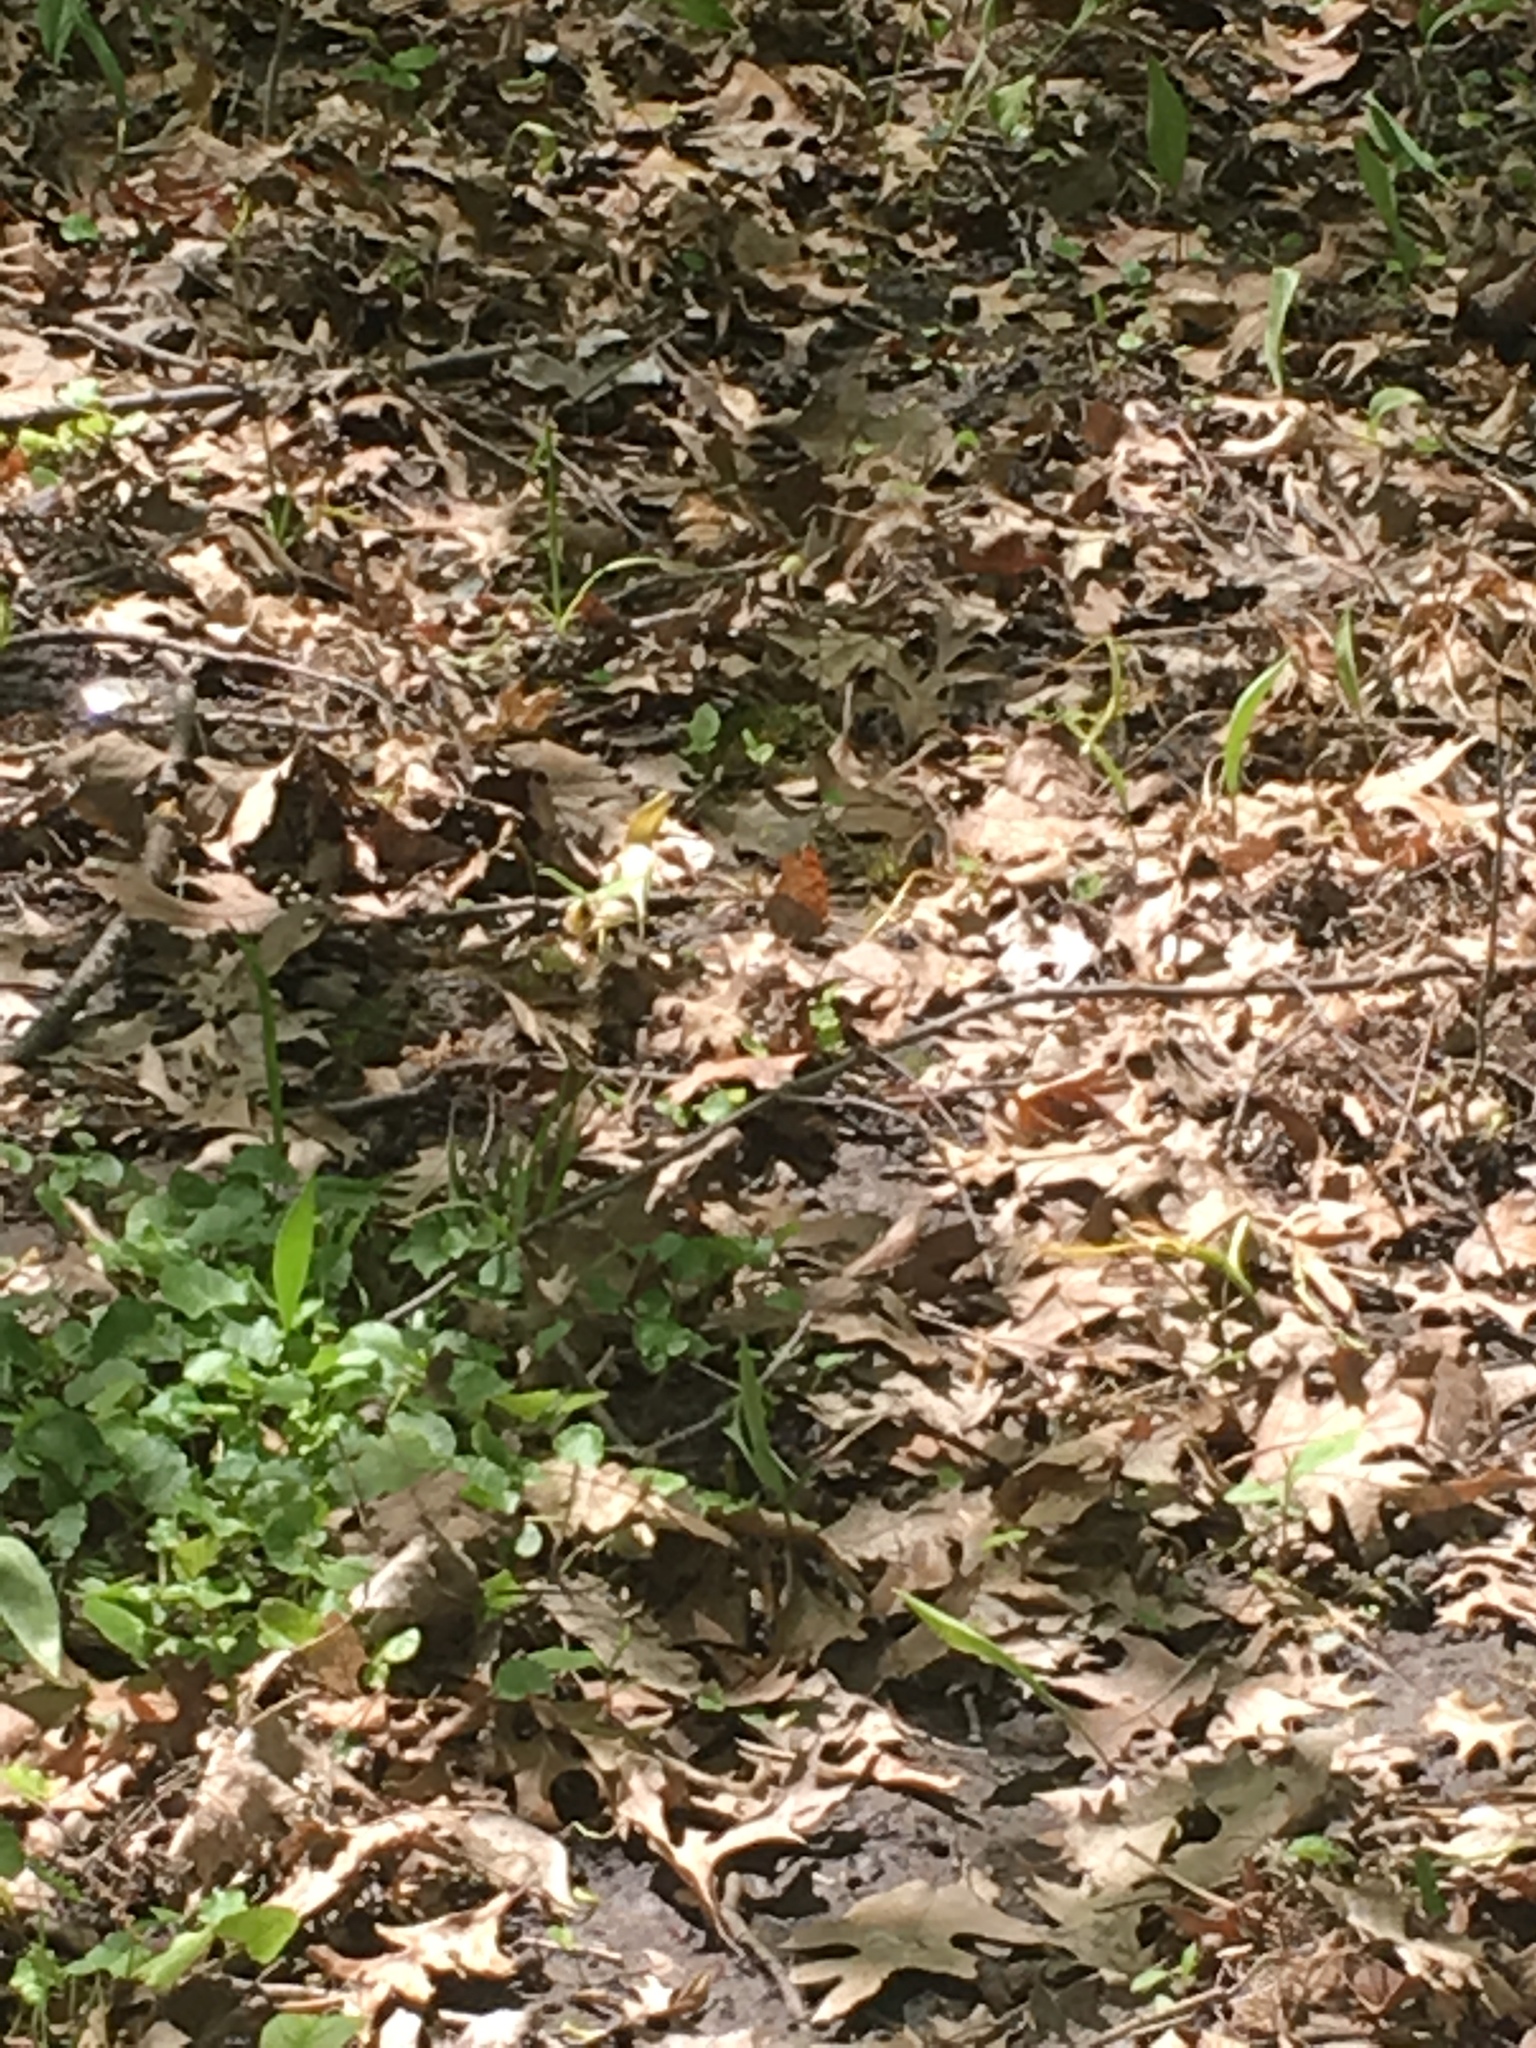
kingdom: Animalia
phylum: Arthropoda
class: Insecta
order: Lepidoptera
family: Nymphalidae
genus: Polygonia
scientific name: Polygonia
